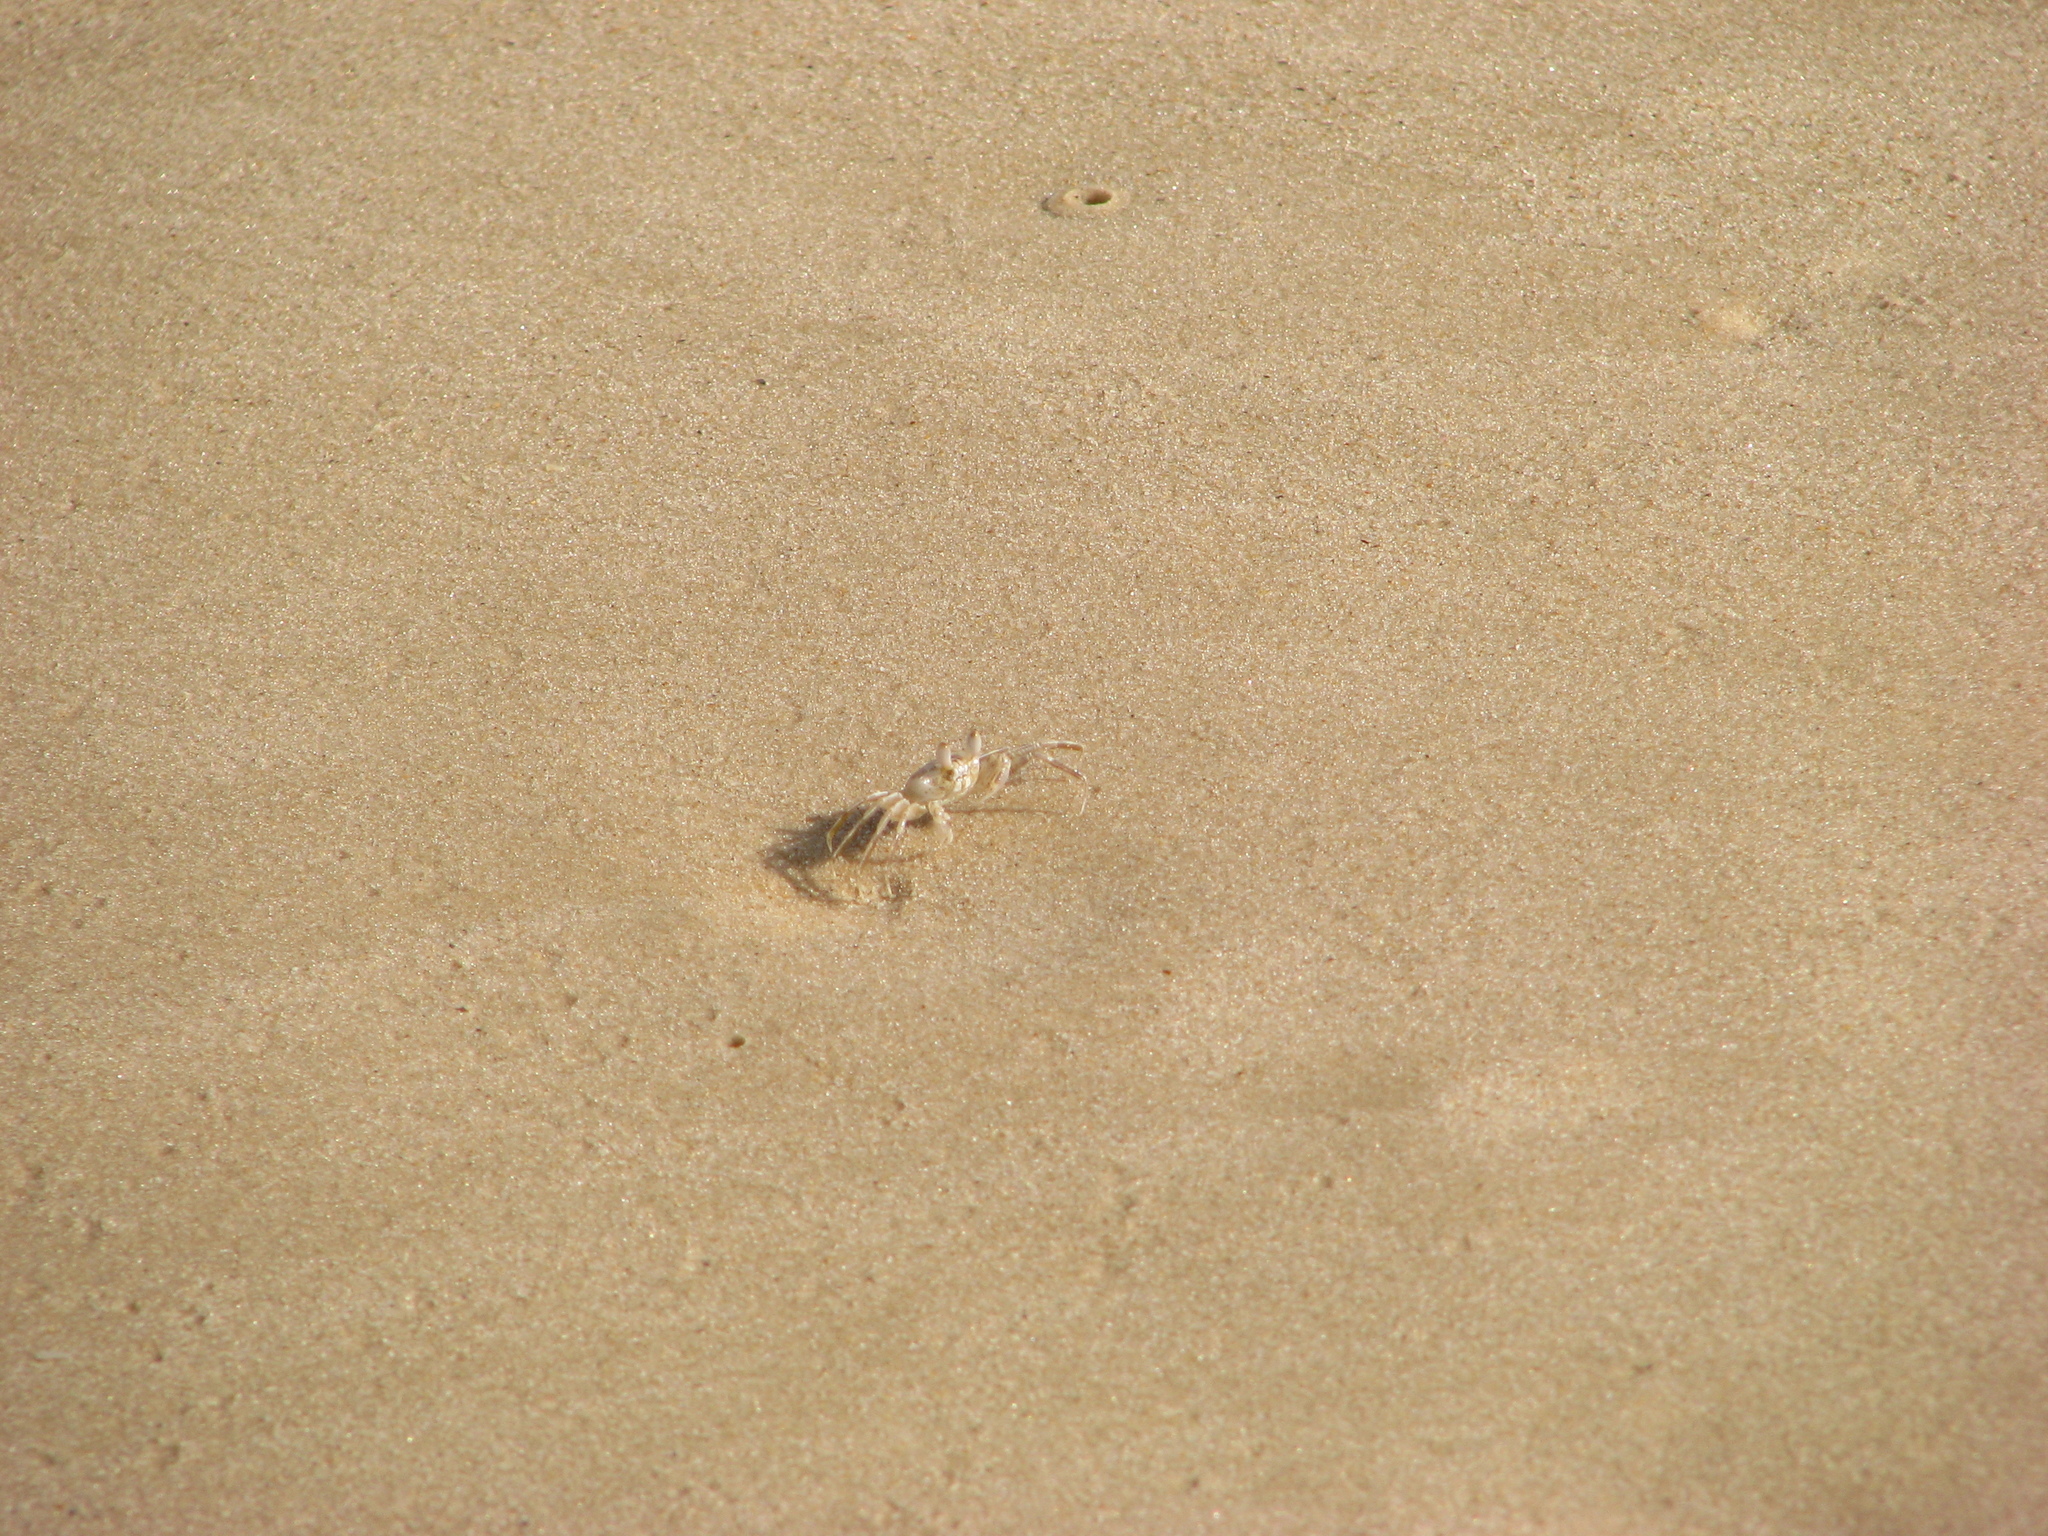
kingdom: Animalia
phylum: Arthropoda
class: Malacostraca
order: Decapoda
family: Ocypodidae
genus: Ocypode
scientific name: Ocypode africana
